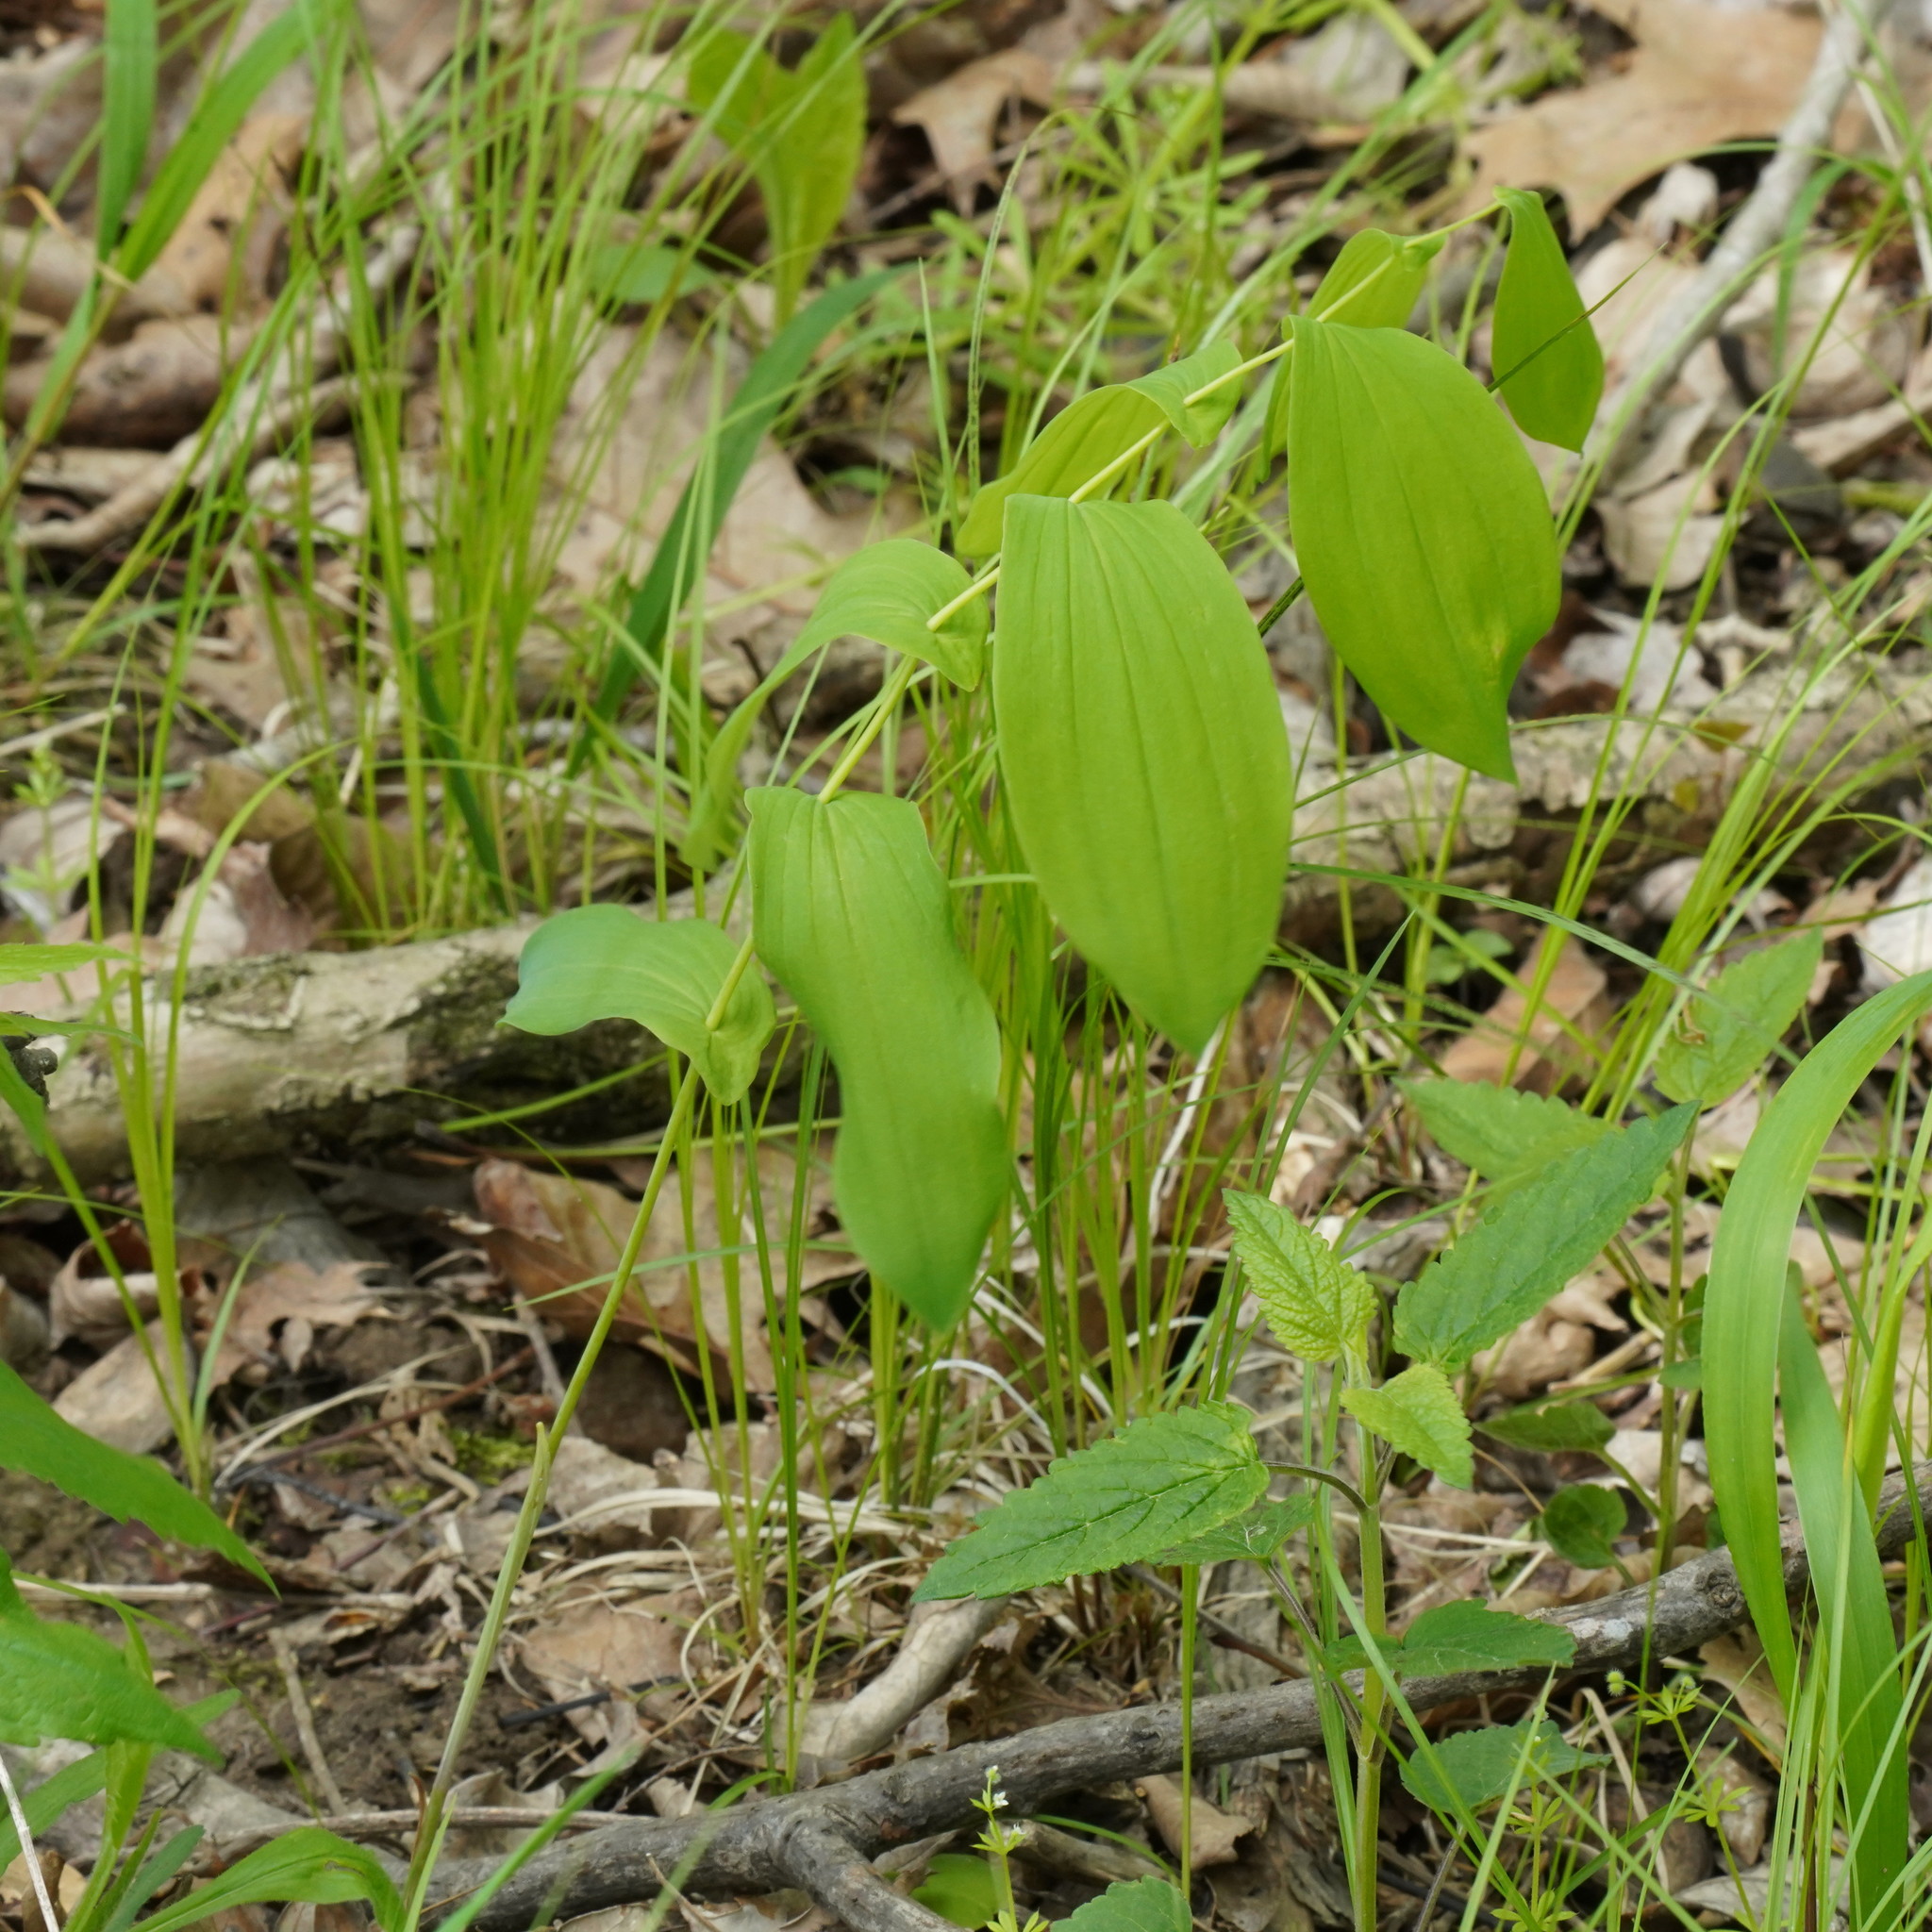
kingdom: Plantae
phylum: Tracheophyta
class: Liliopsida
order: Liliales
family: Colchicaceae
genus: Uvularia
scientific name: Uvularia grandiflora
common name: Bellwort
